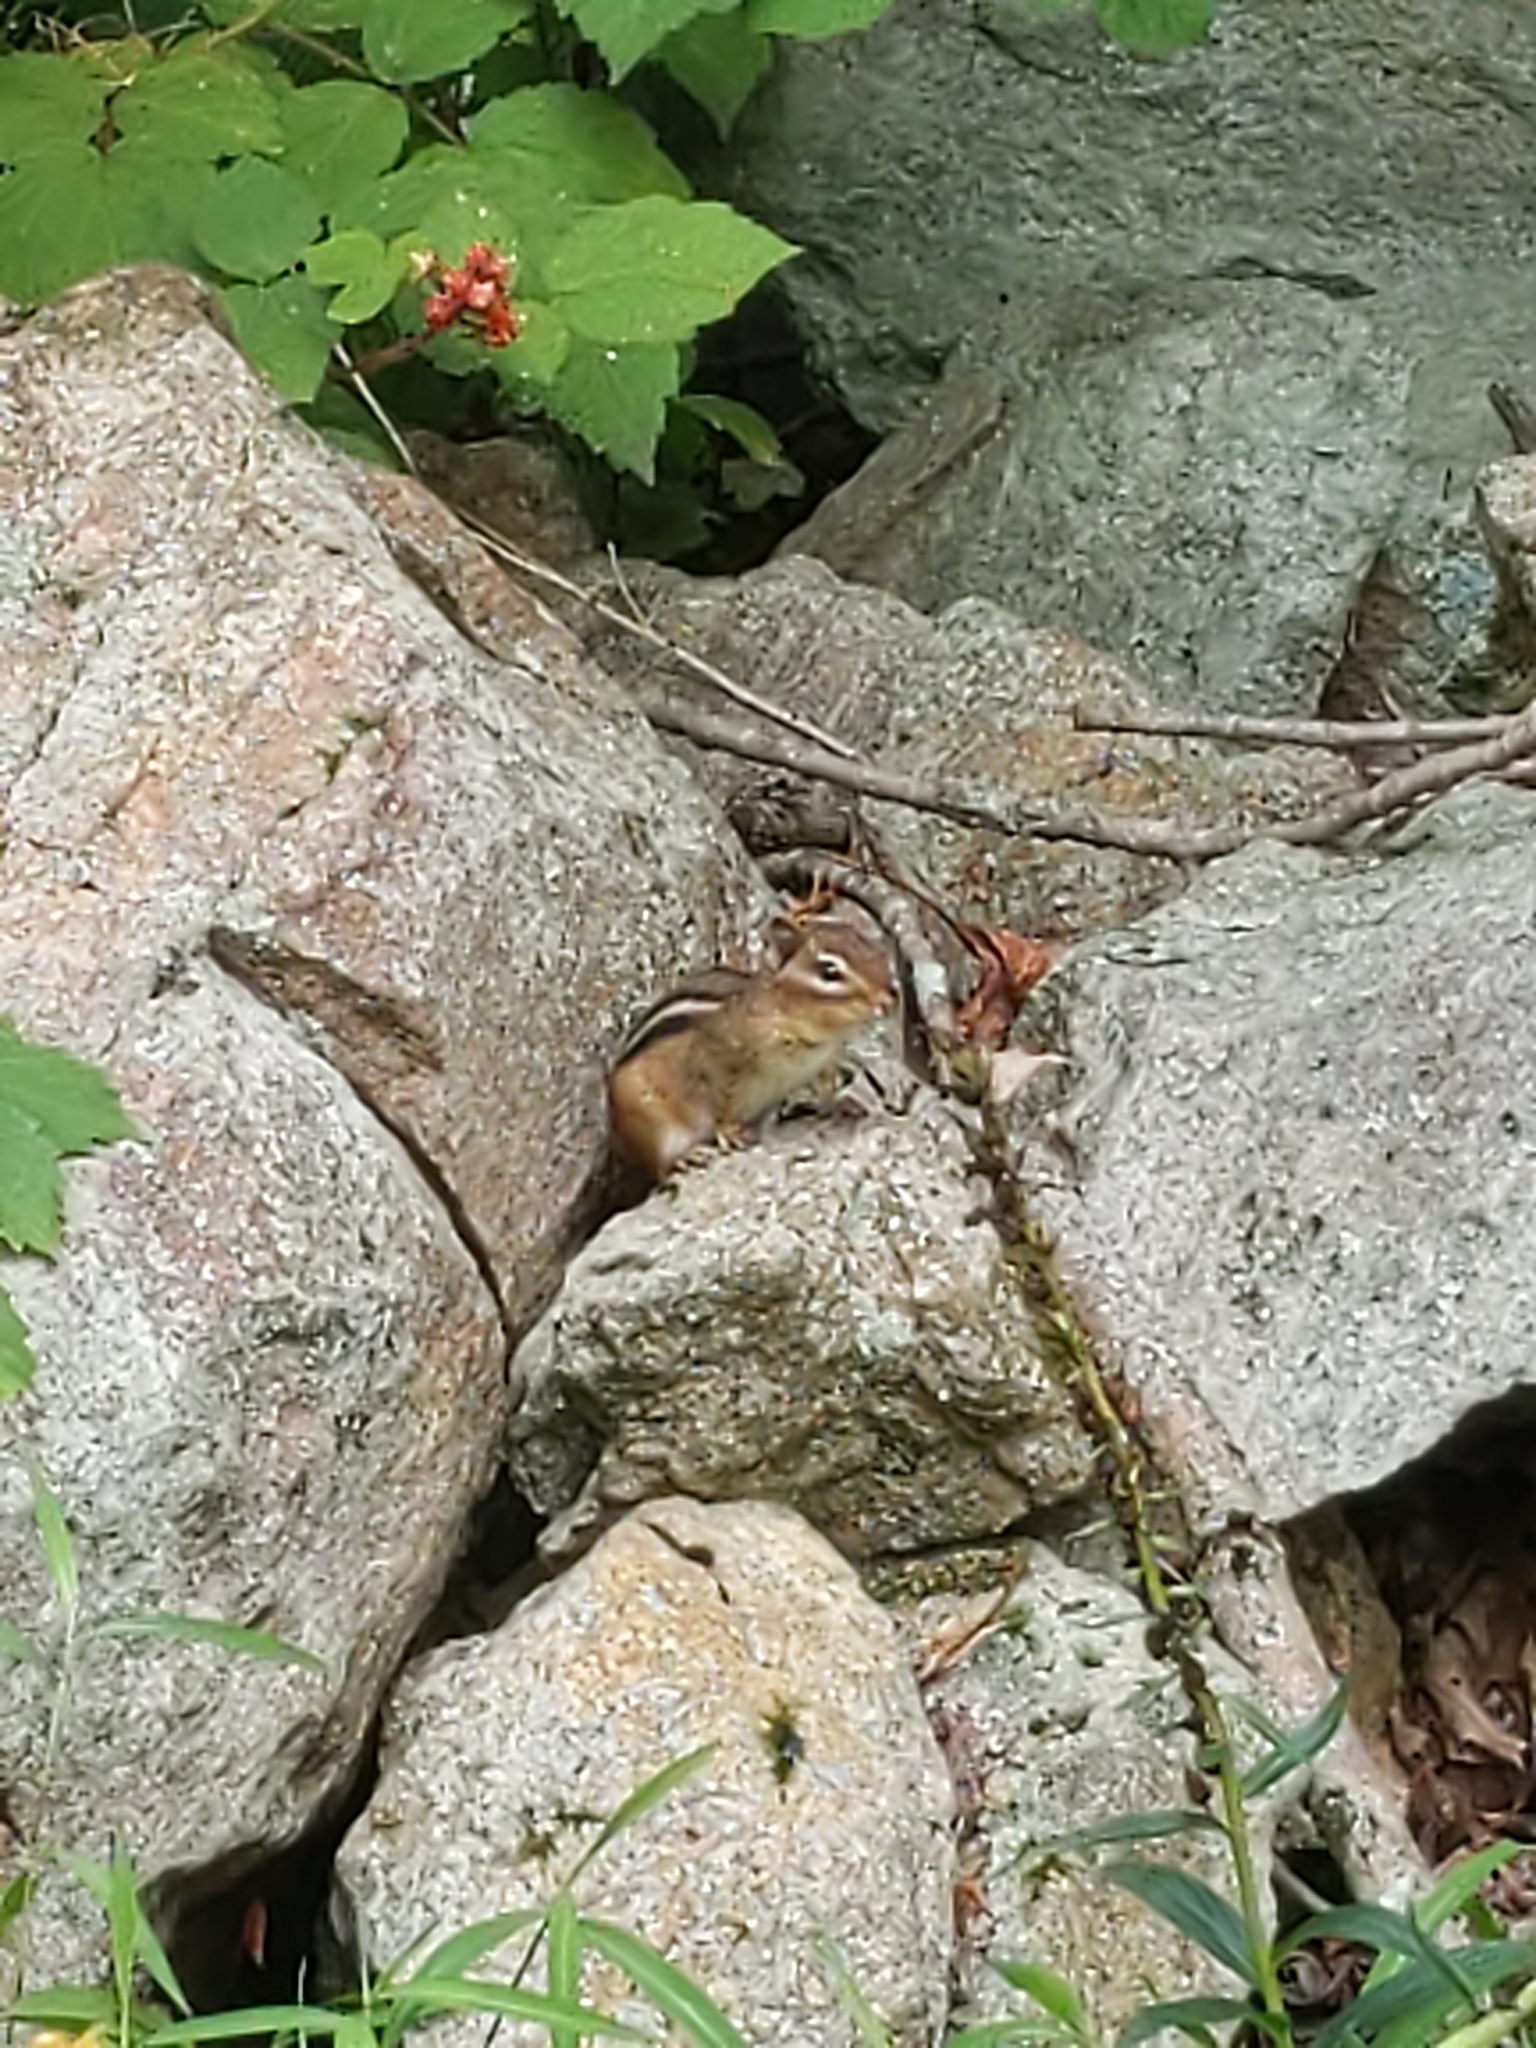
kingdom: Animalia
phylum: Chordata
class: Mammalia
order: Rodentia
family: Sciuridae
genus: Tamias
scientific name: Tamias striatus
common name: Eastern chipmunk
